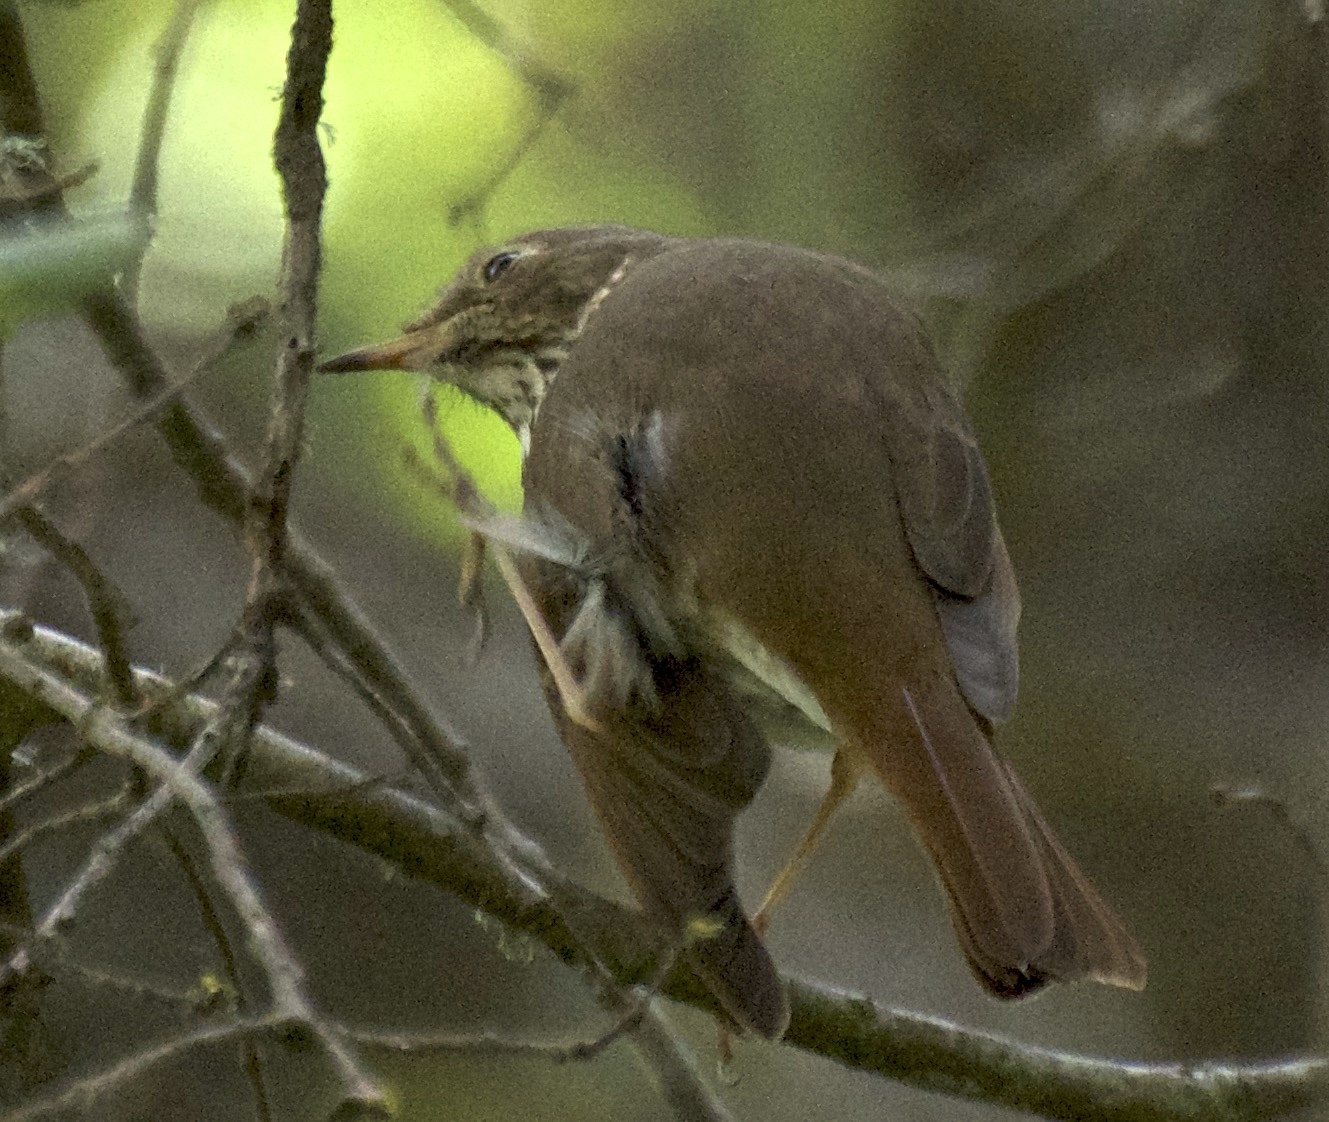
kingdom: Animalia
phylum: Chordata
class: Aves
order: Passeriformes
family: Turdidae
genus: Catharus
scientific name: Catharus guttatus
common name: Hermit thrush
